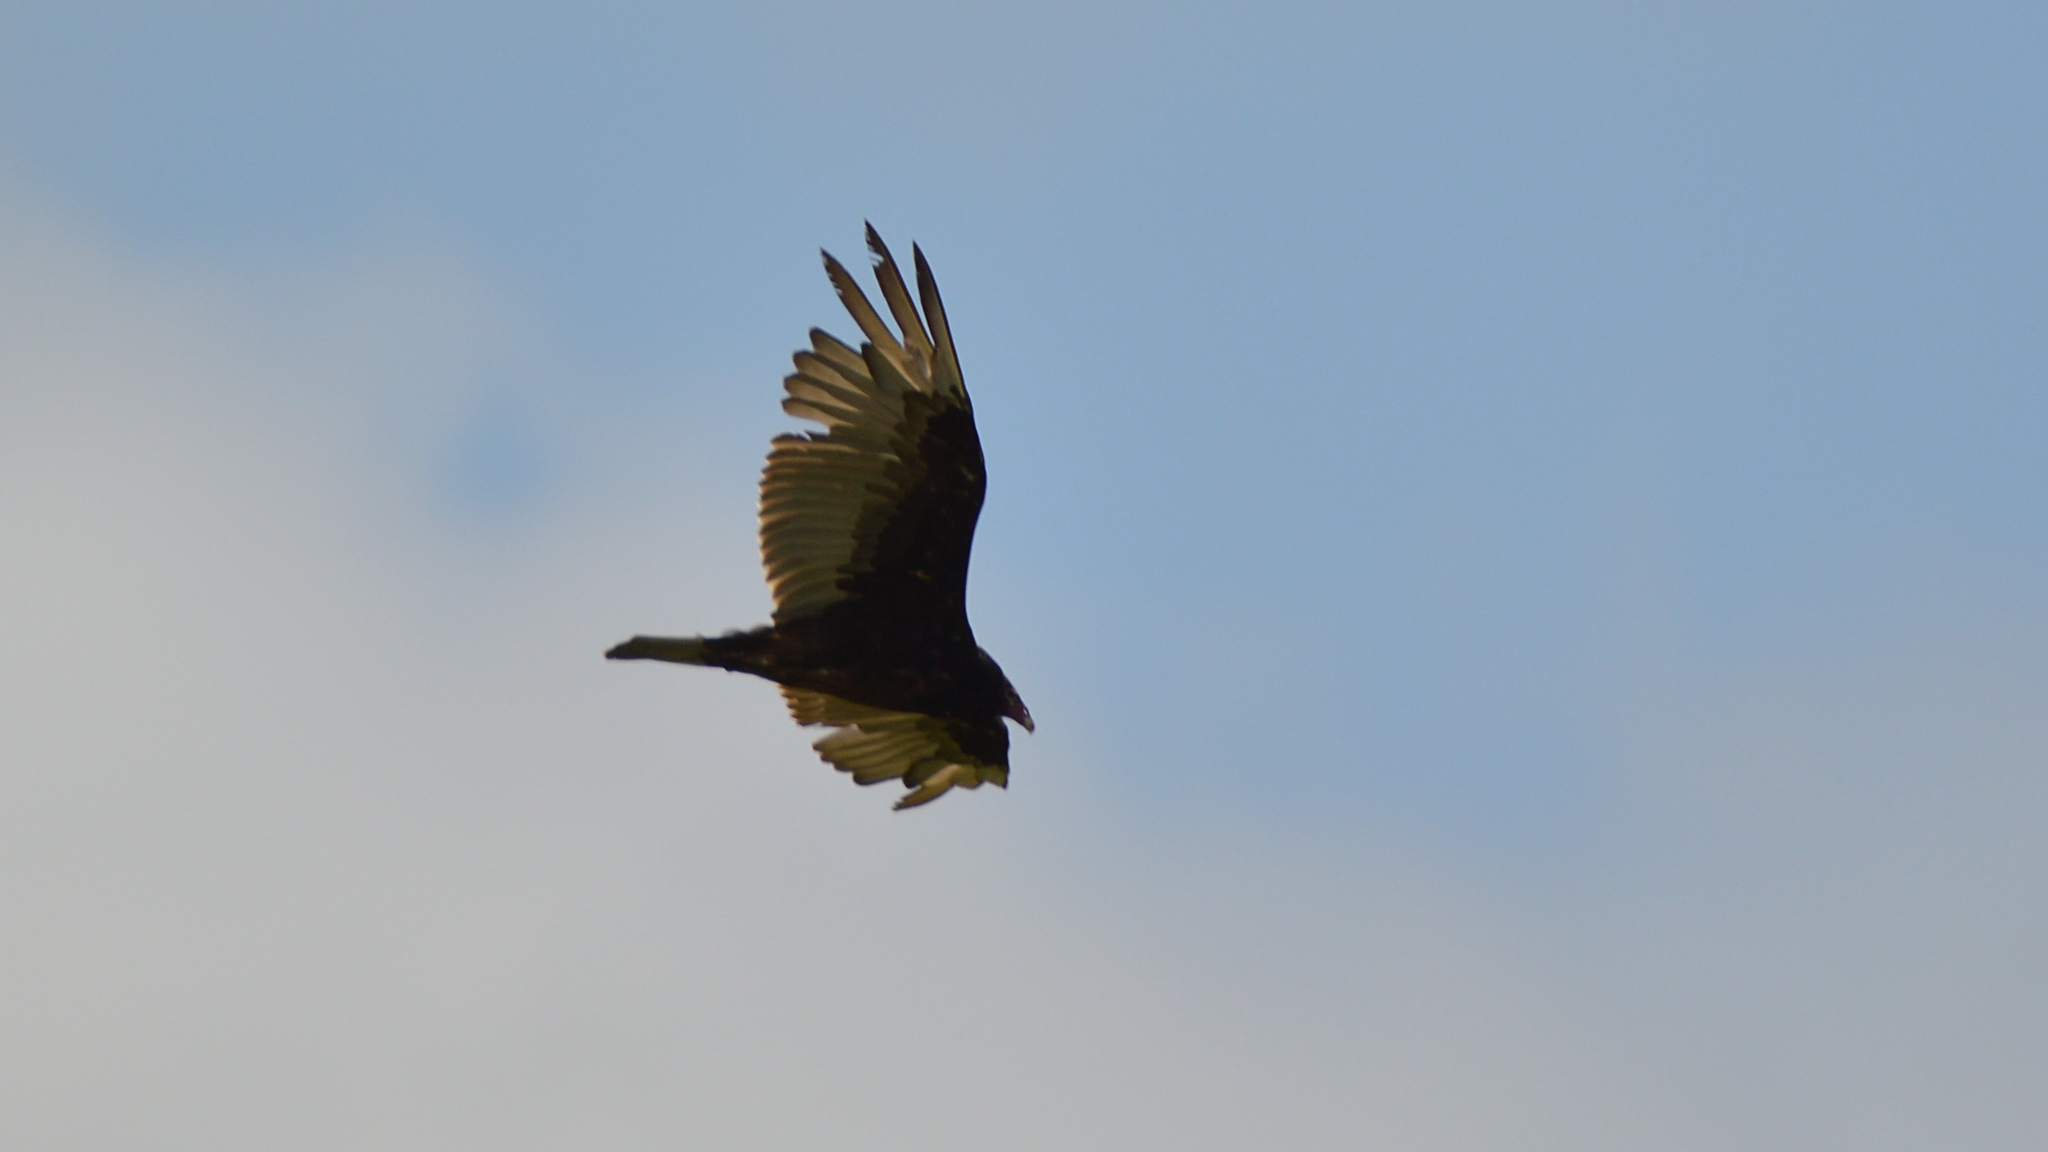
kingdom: Animalia
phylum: Chordata
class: Aves
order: Accipitriformes
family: Cathartidae
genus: Cathartes
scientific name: Cathartes aura
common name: Turkey vulture
